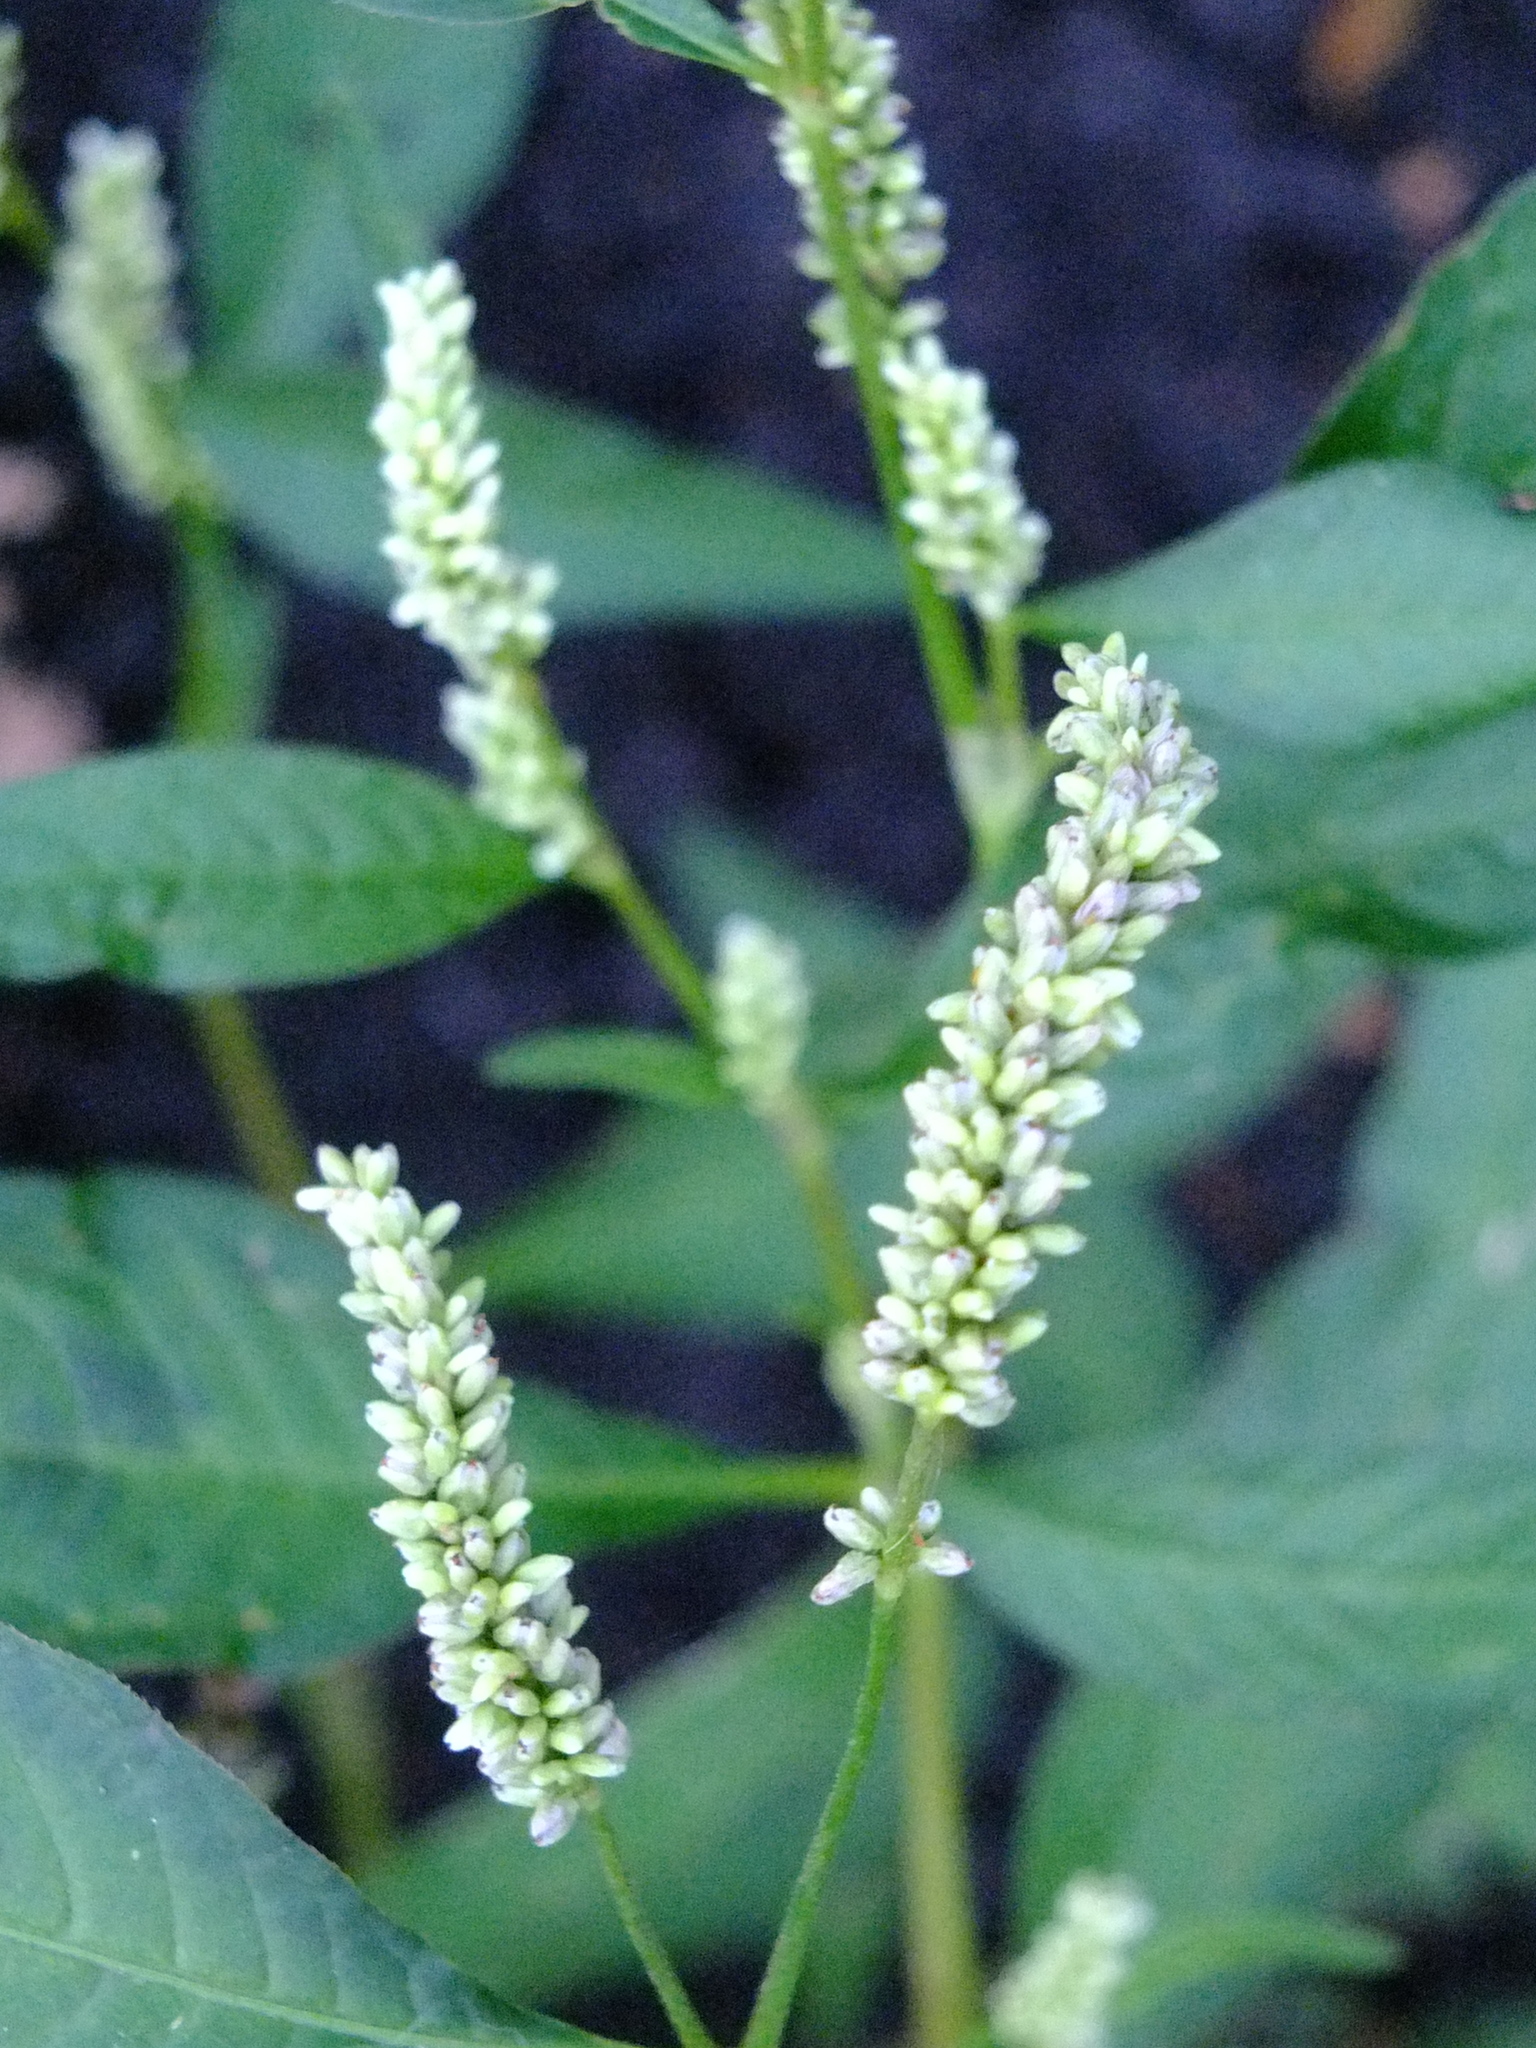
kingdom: Plantae
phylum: Tracheophyta
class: Magnoliopsida
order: Caryophyllales
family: Polygonaceae
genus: Persicaria
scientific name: Persicaria lapathifolia
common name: Curlytop knotweed
